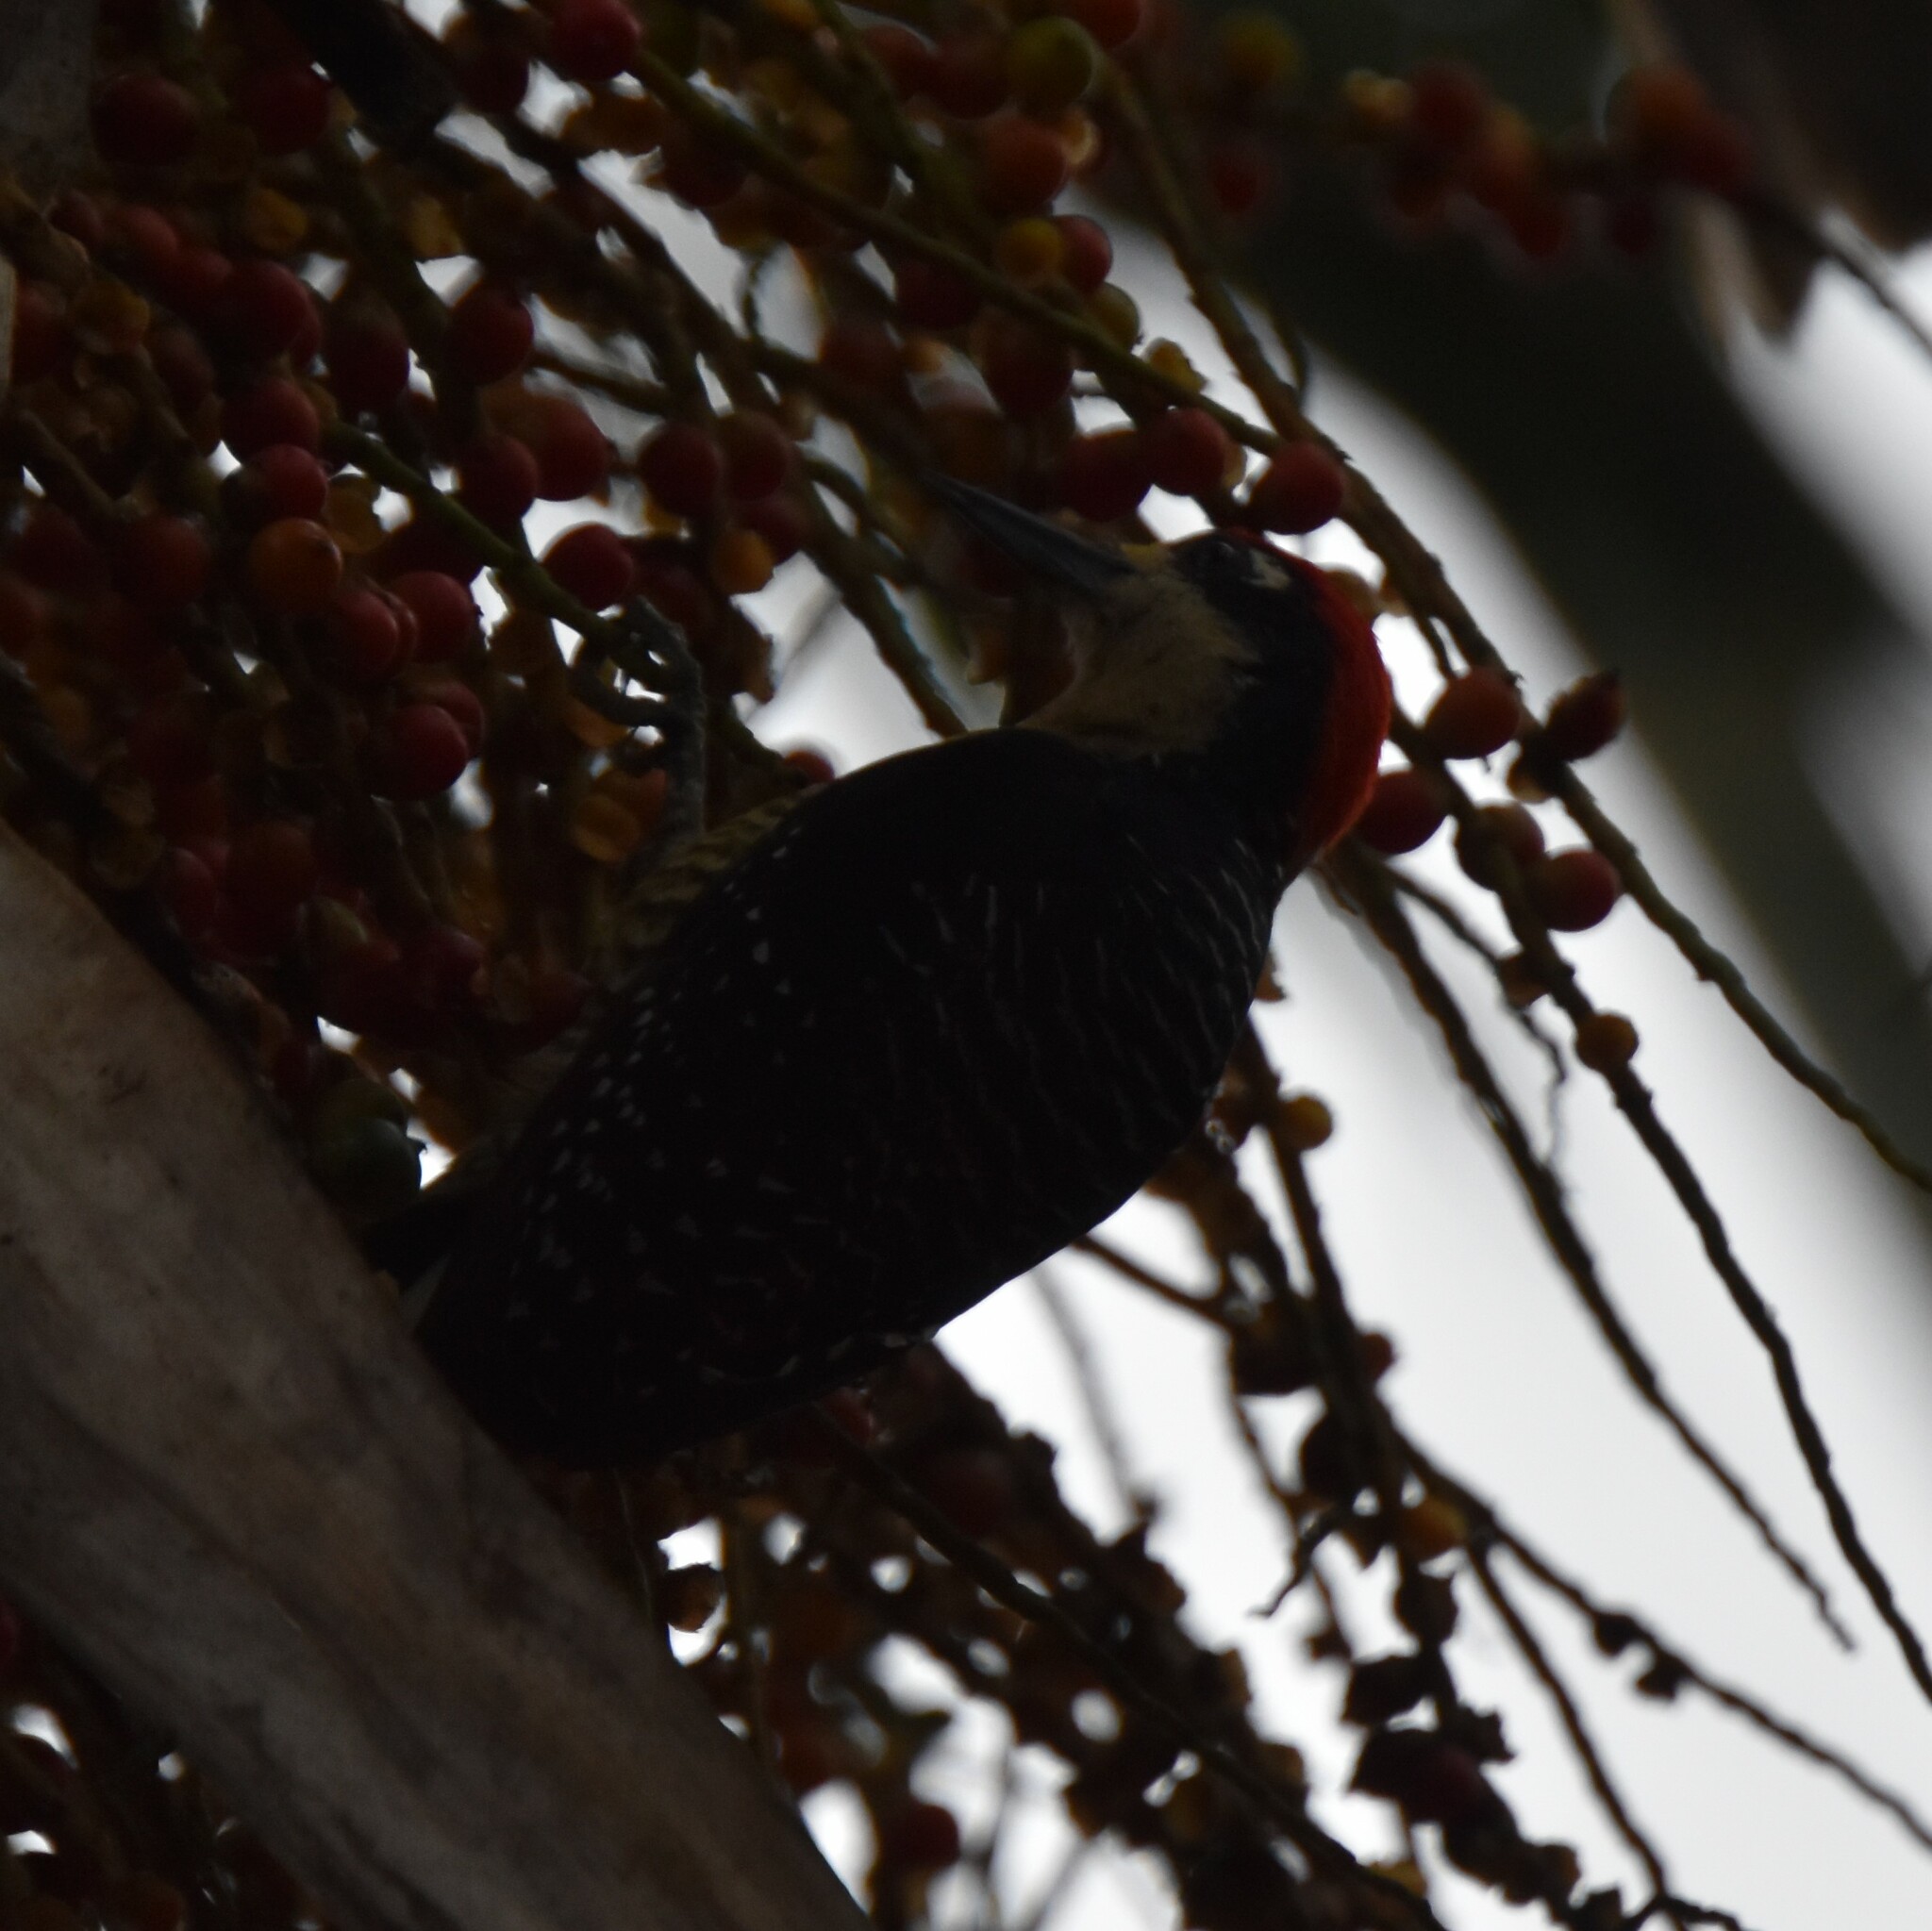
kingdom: Animalia
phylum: Chordata
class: Aves
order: Piciformes
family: Picidae
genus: Melanerpes
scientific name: Melanerpes pucherani
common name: Black-cheeked woodpecker
